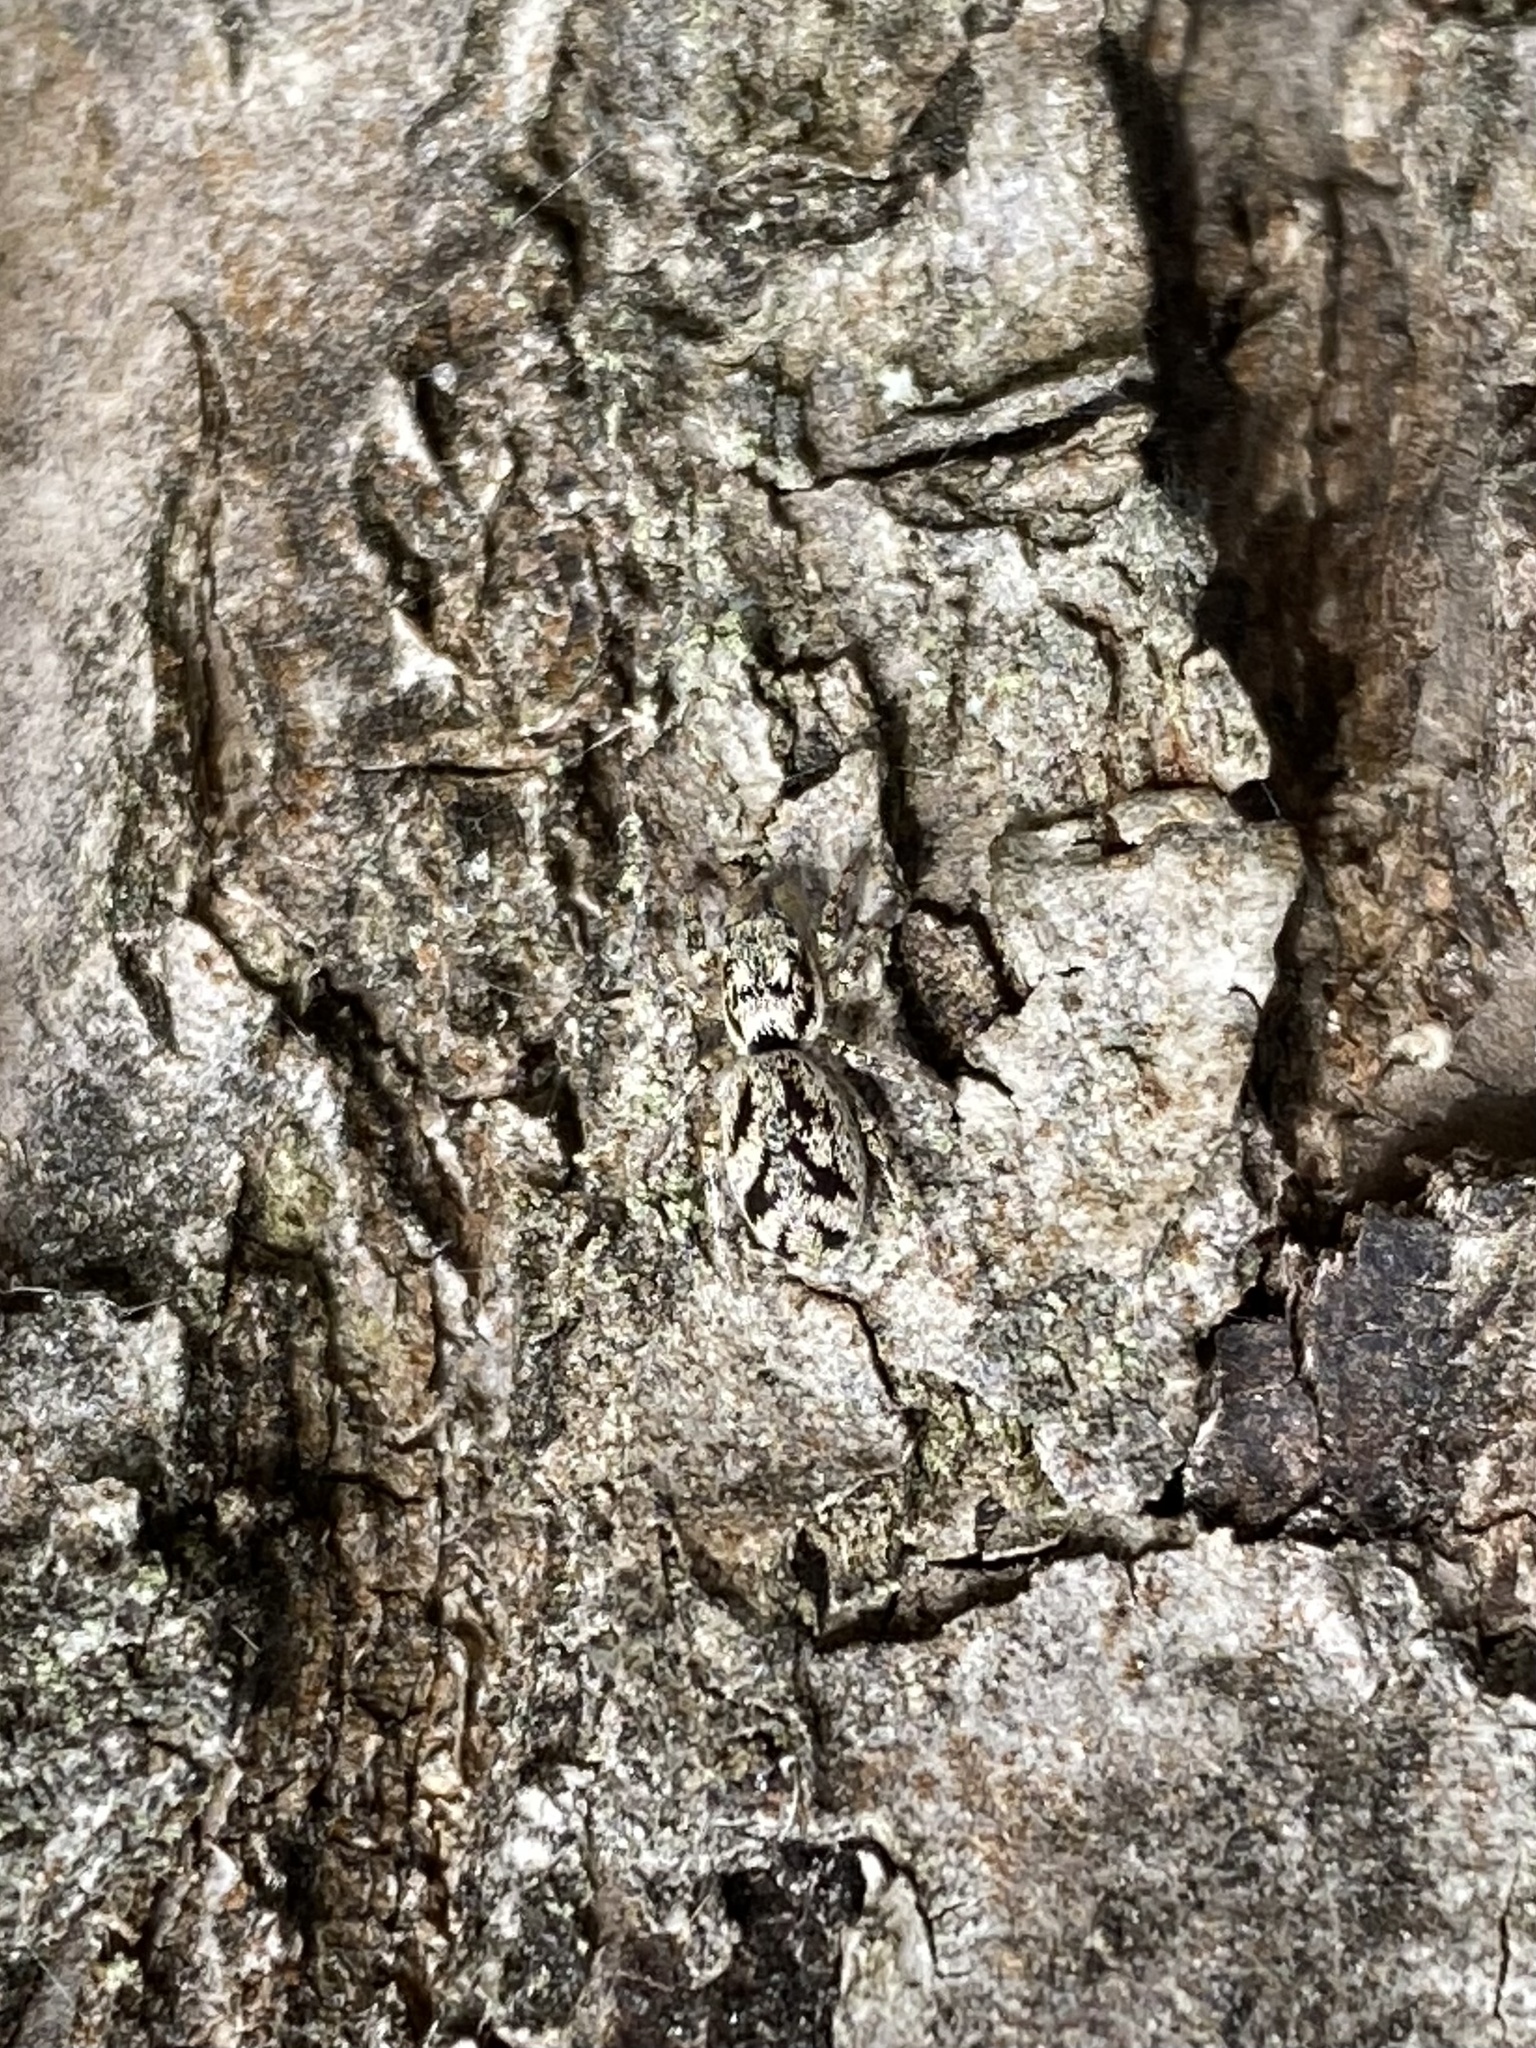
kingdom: Animalia
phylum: Arthropoda
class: Arachnida
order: Araneae
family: Salticidae
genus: Salticus
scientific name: Salticus cingulatus
